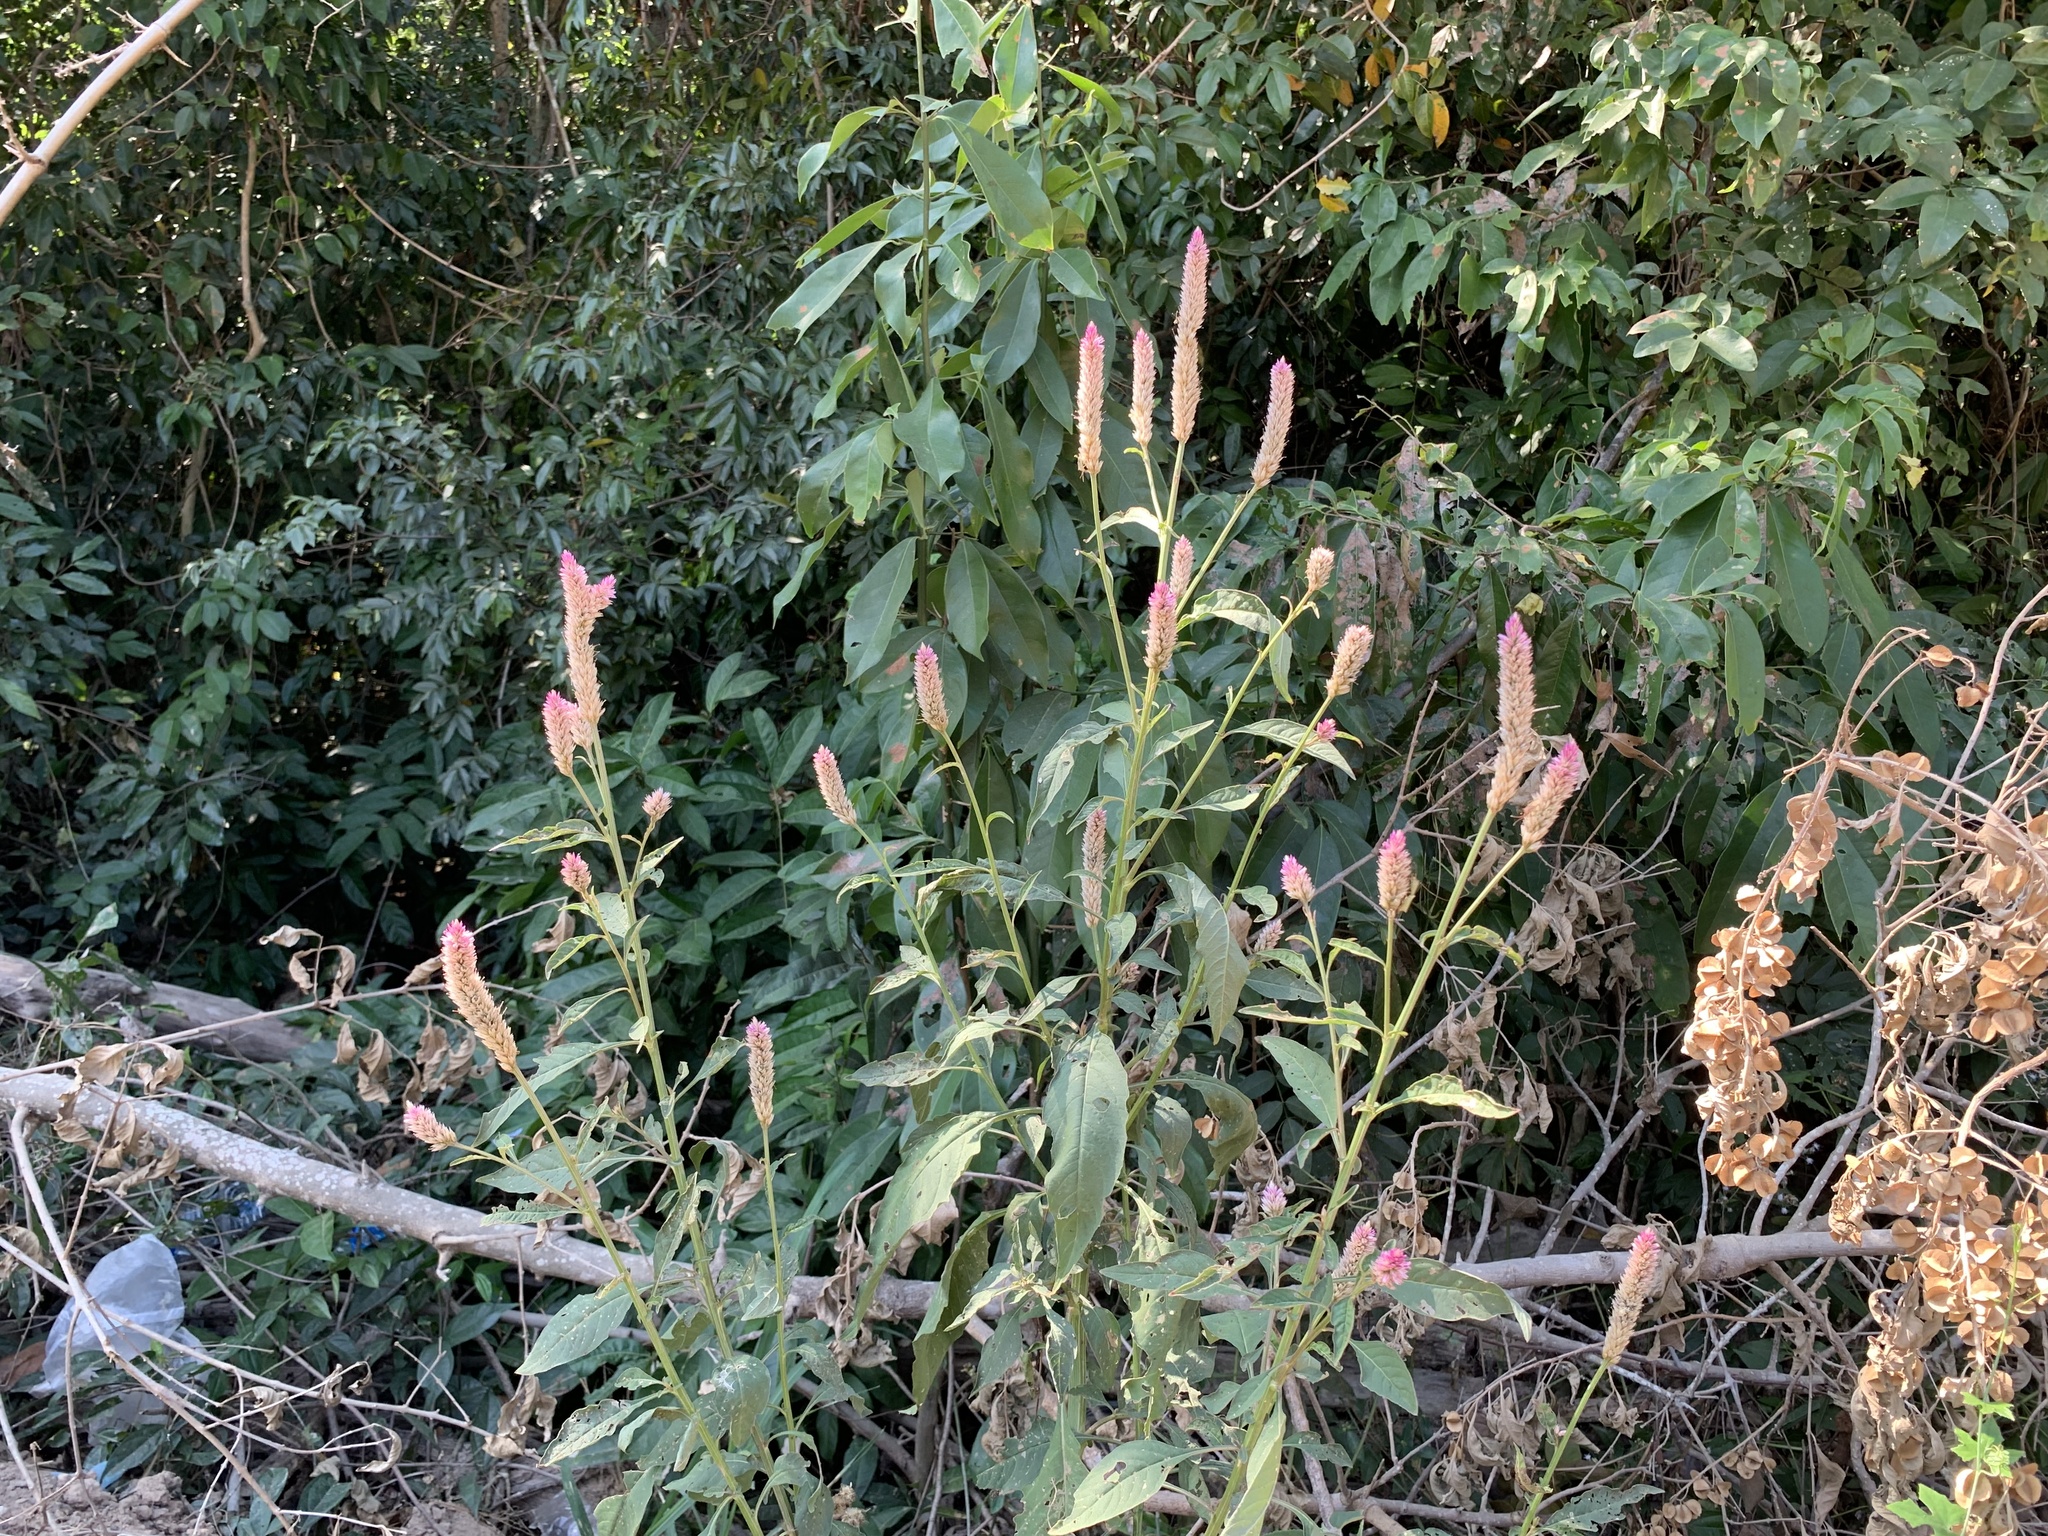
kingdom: Plantae
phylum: Tracheophyta
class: Magnoliopsida
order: Caryophyllales
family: Amaranthaceae
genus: Celosia
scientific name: Celosia argentea
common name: Feather cockscomb
